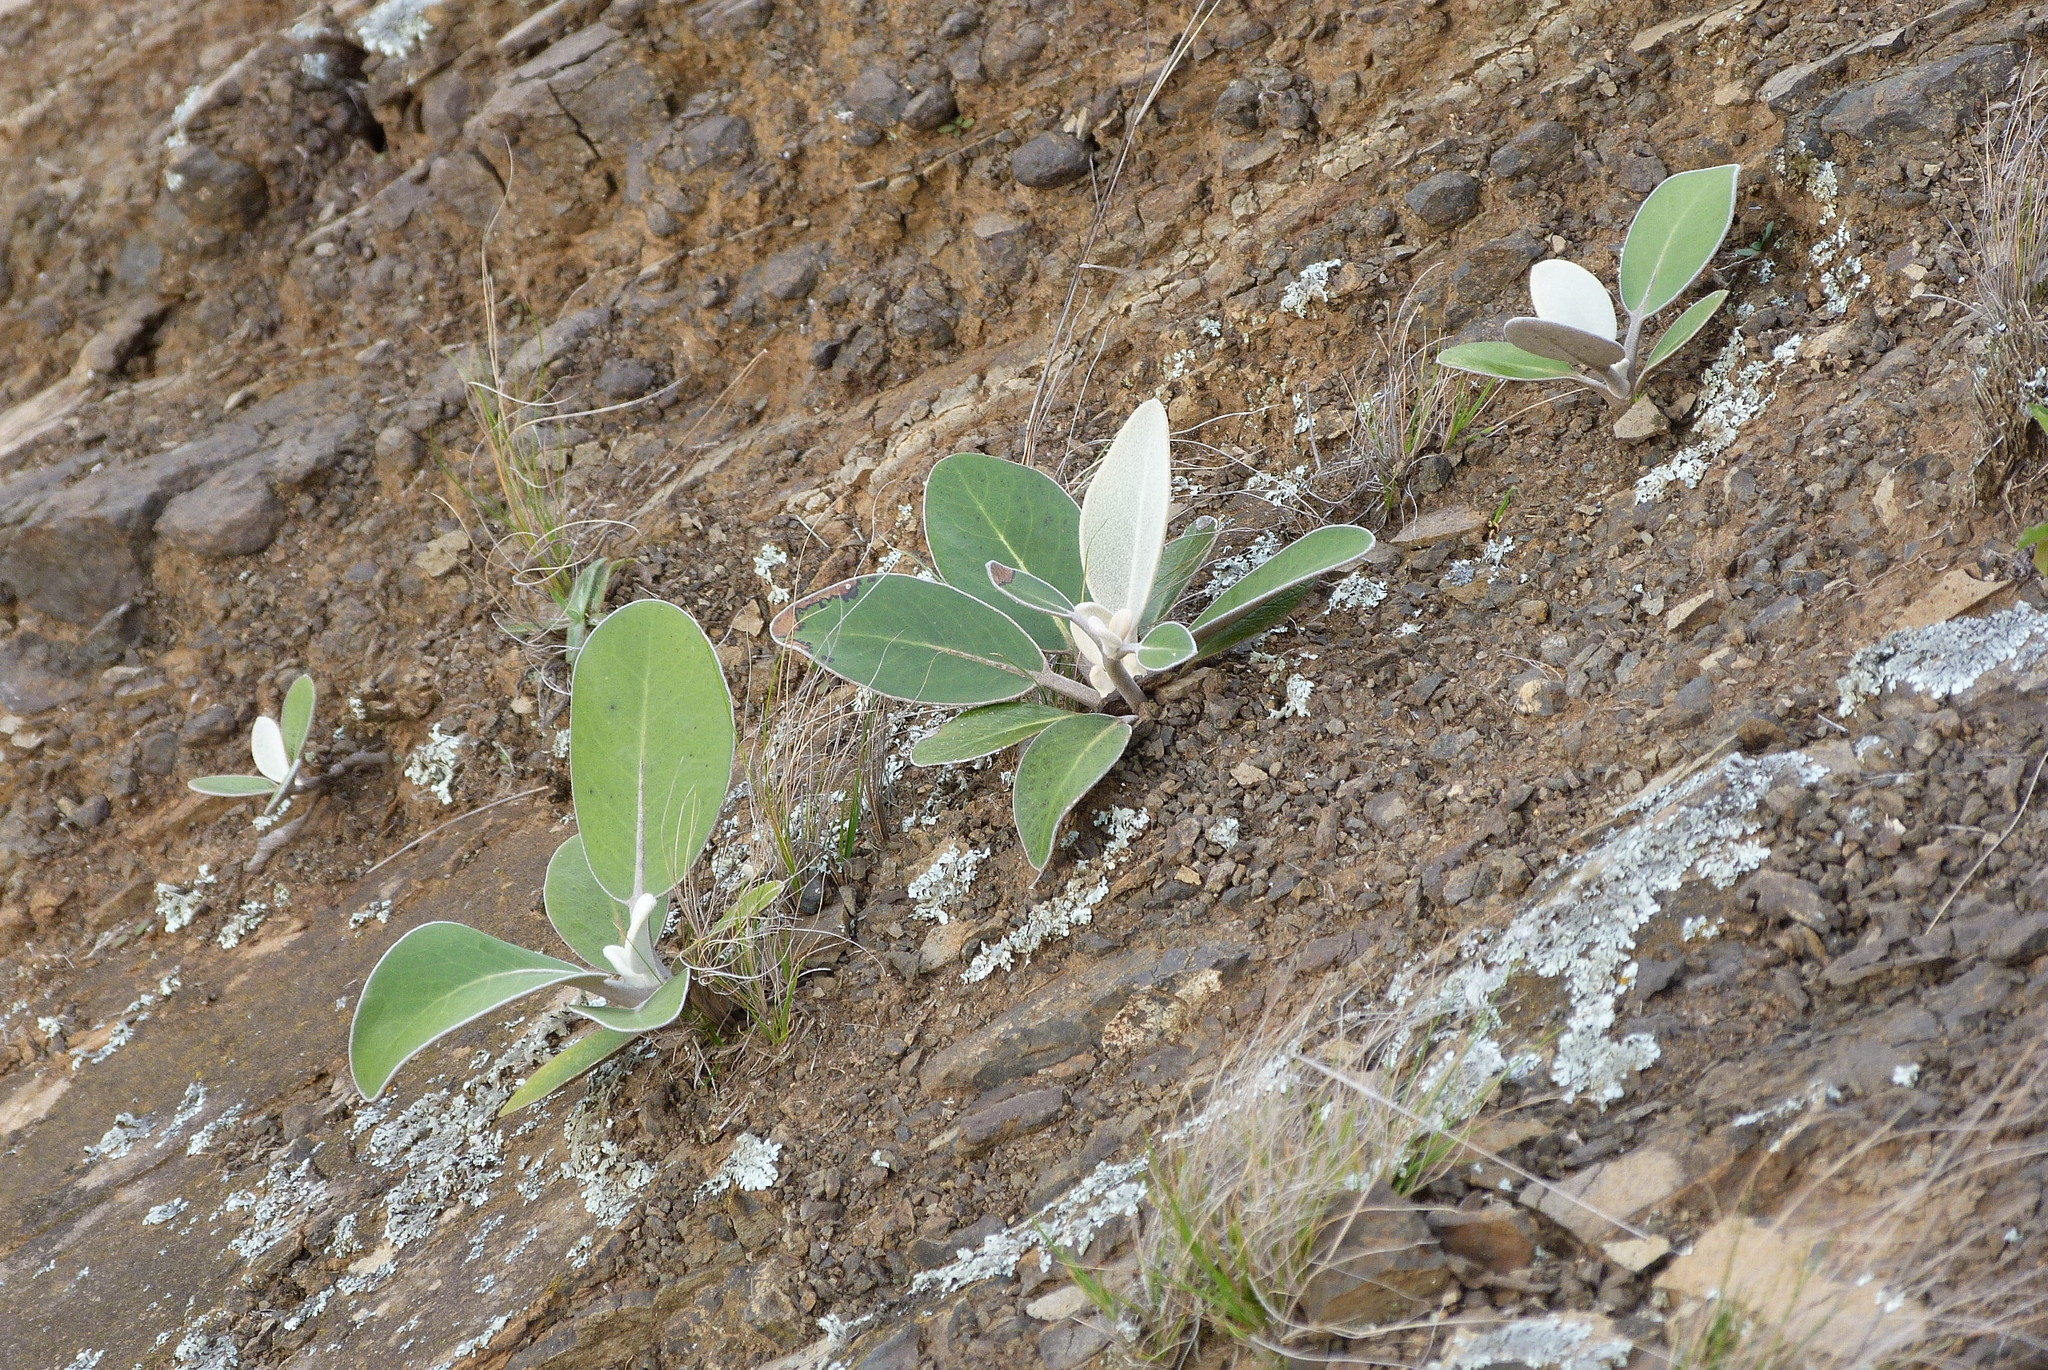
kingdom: Plantae
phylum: Tracheophyta
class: Magnoliopsida
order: Asterales
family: Asteraceae
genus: Pachystegia
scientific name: Pachystegia insignis
